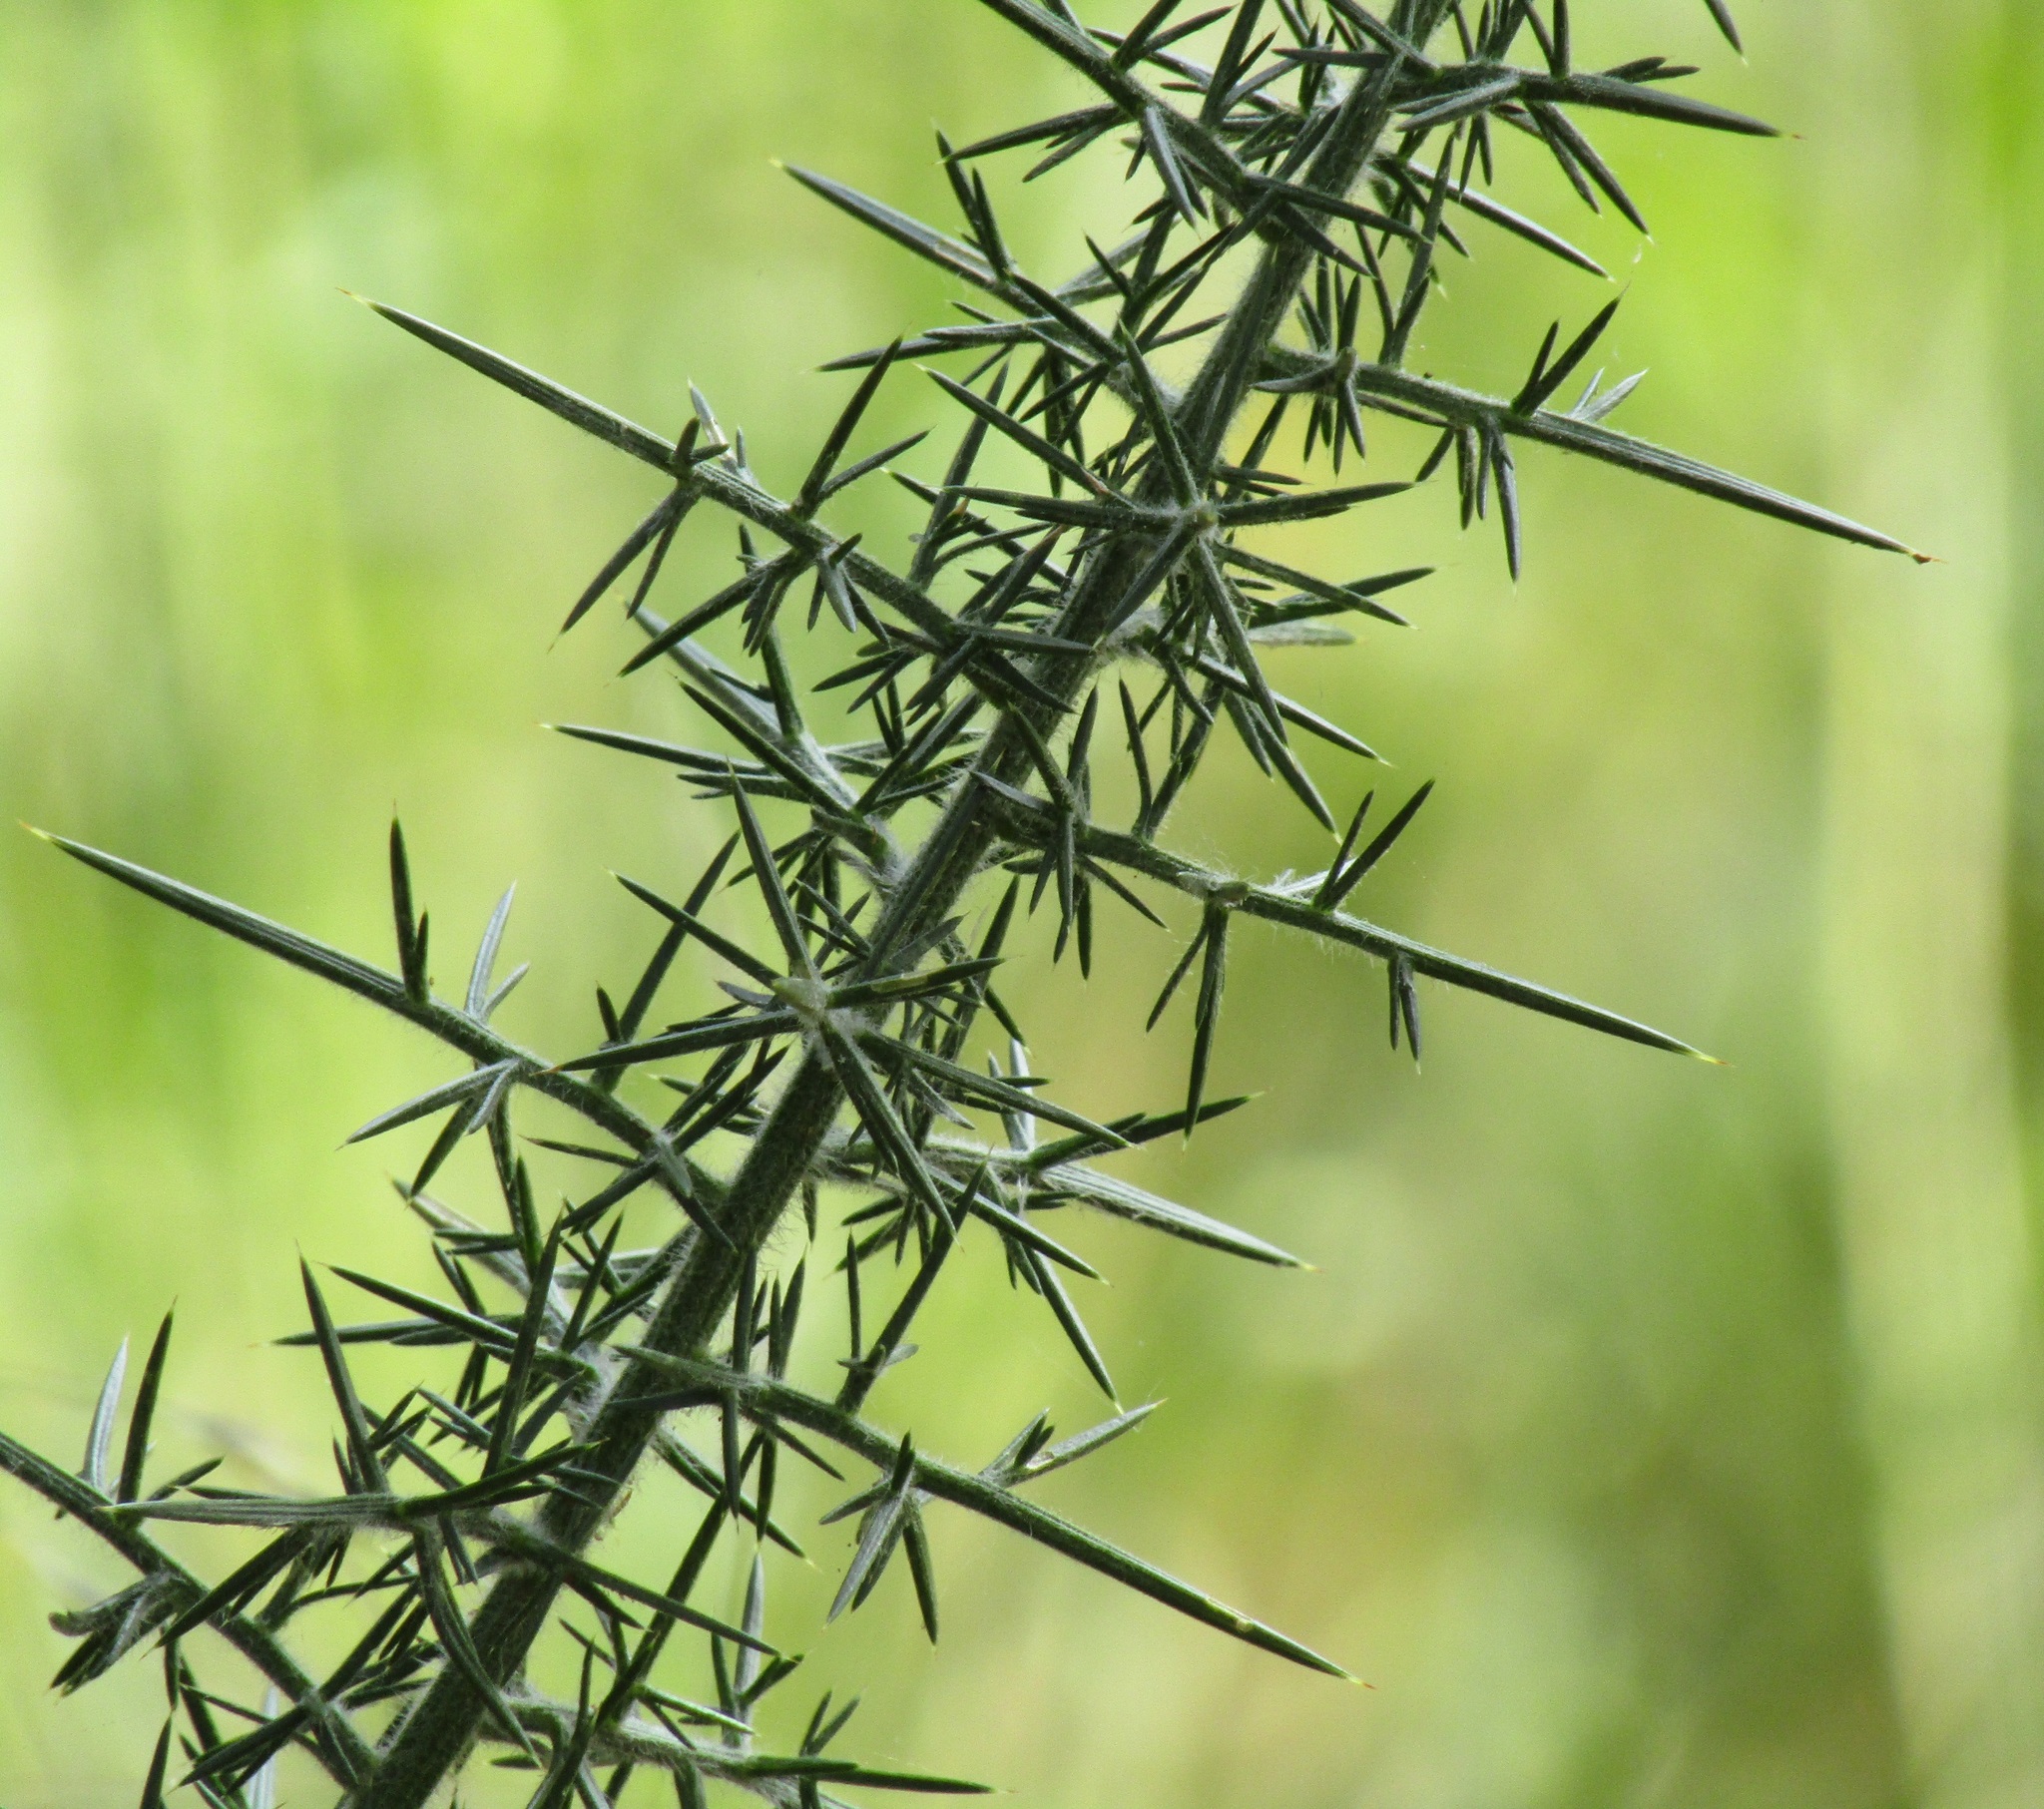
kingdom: Plantae
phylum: Tracheophyta
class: Magnoliopsida
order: Fabales
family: Fabaceae
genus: Ulex
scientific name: Ulex europaeus
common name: Common gorse
